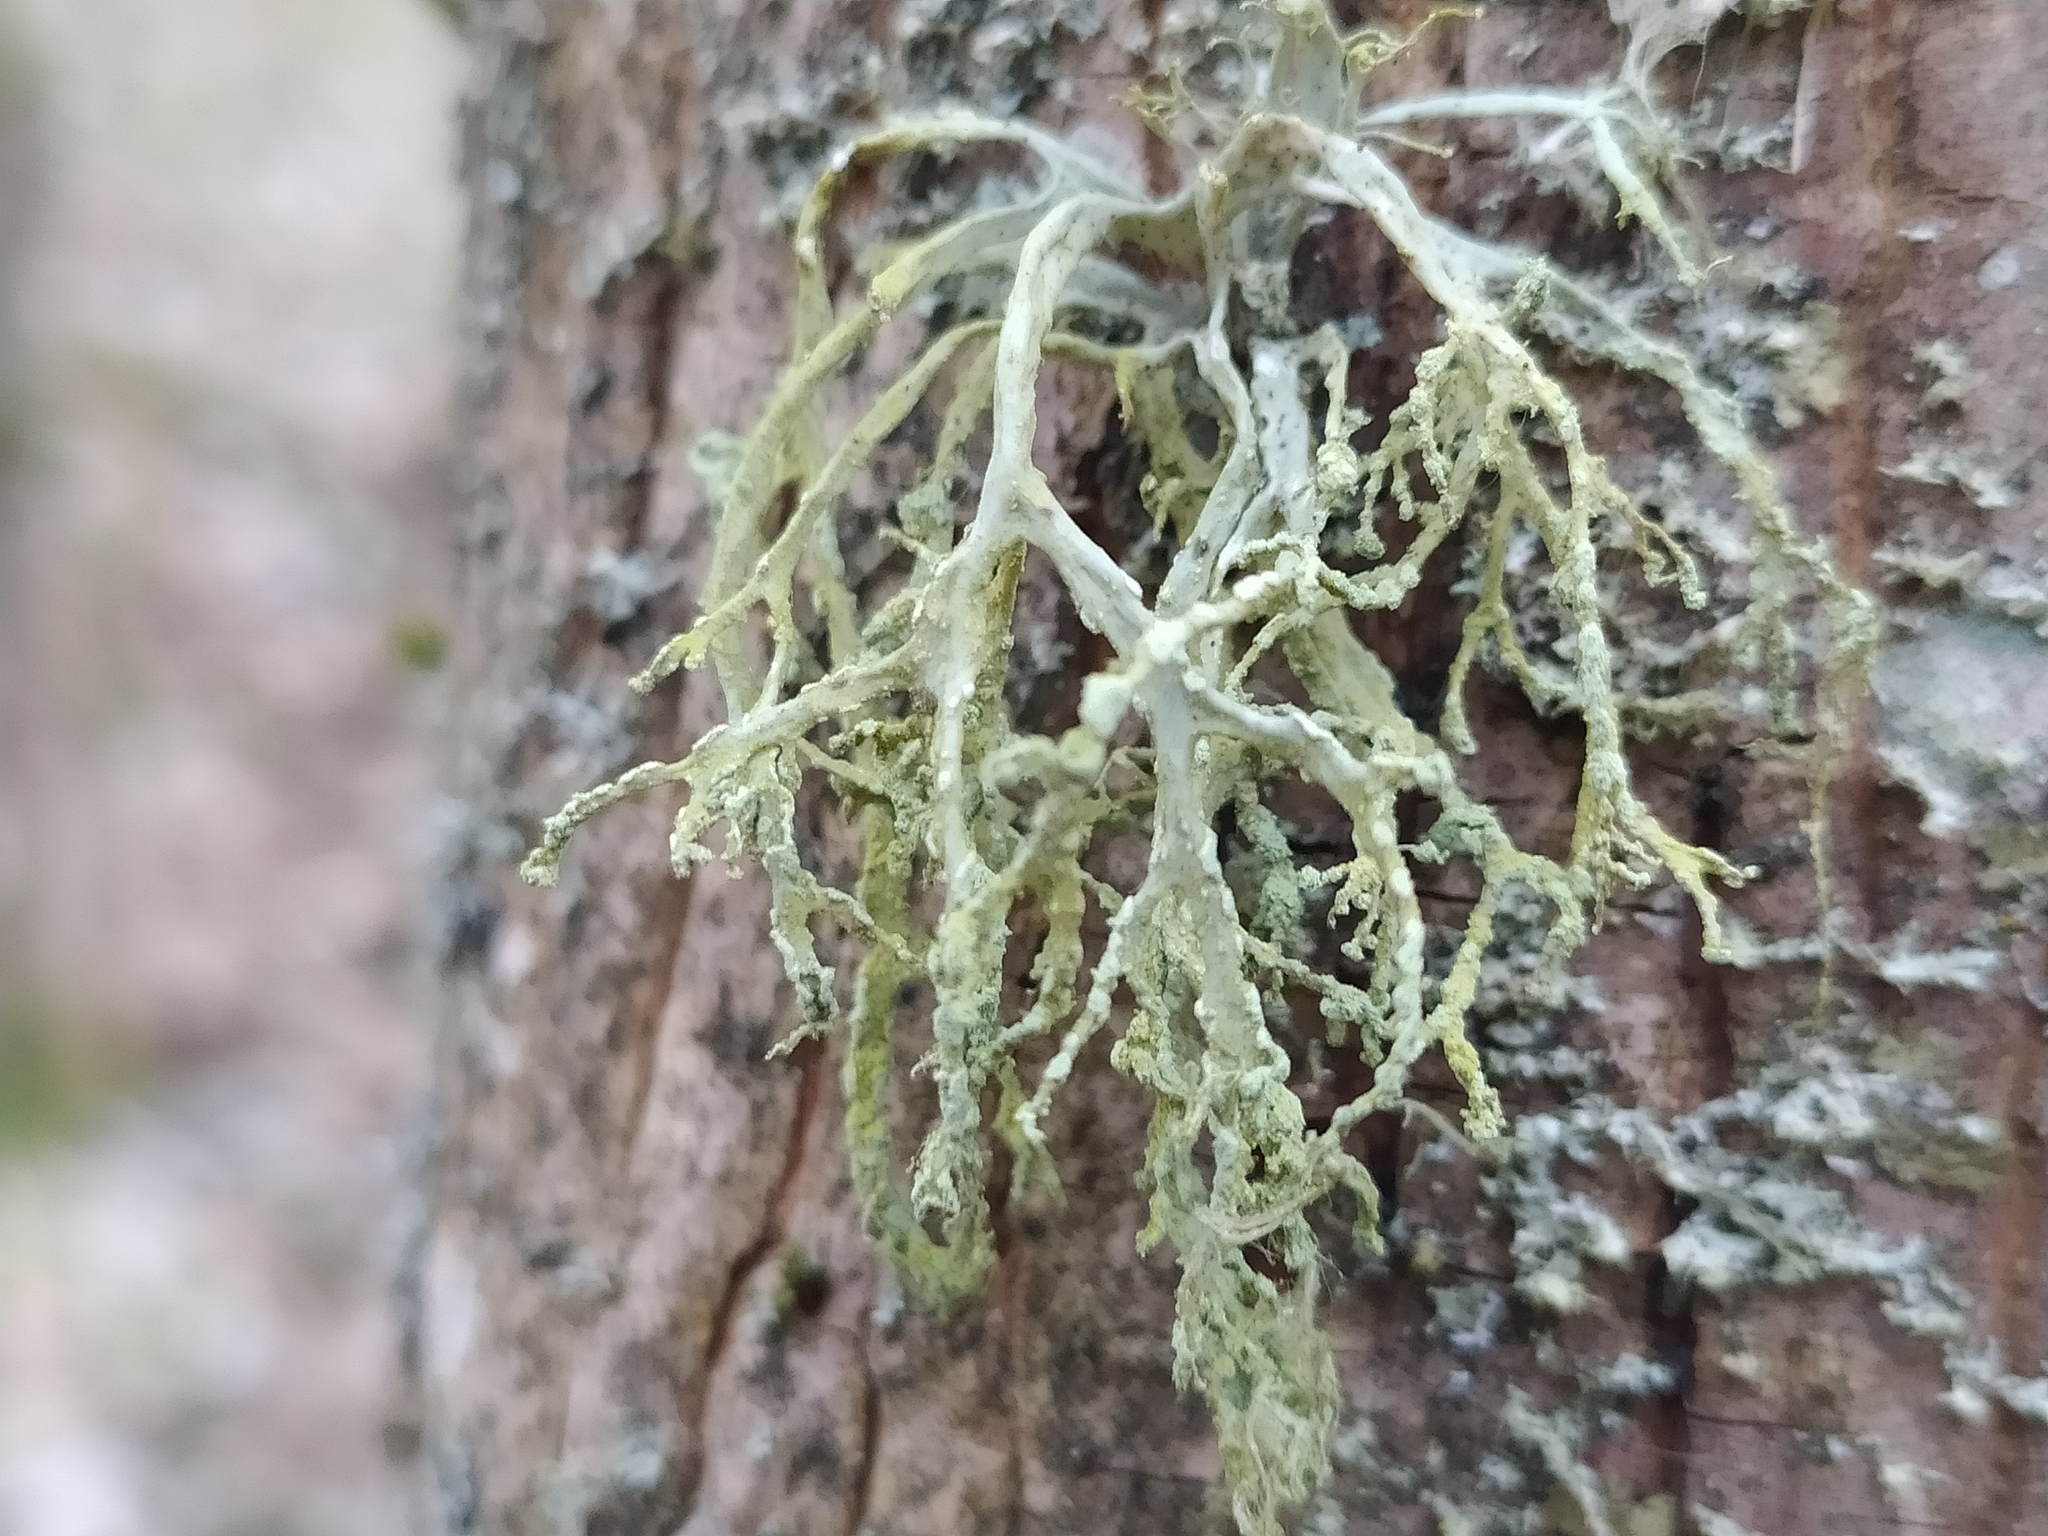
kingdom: Fungi
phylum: Ascomycota
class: Lecanoromycetes
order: Lecanorales
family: Ramalinaceae
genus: Ramalina
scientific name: Ramalina farinacea
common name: Farinose cartilage lichen
